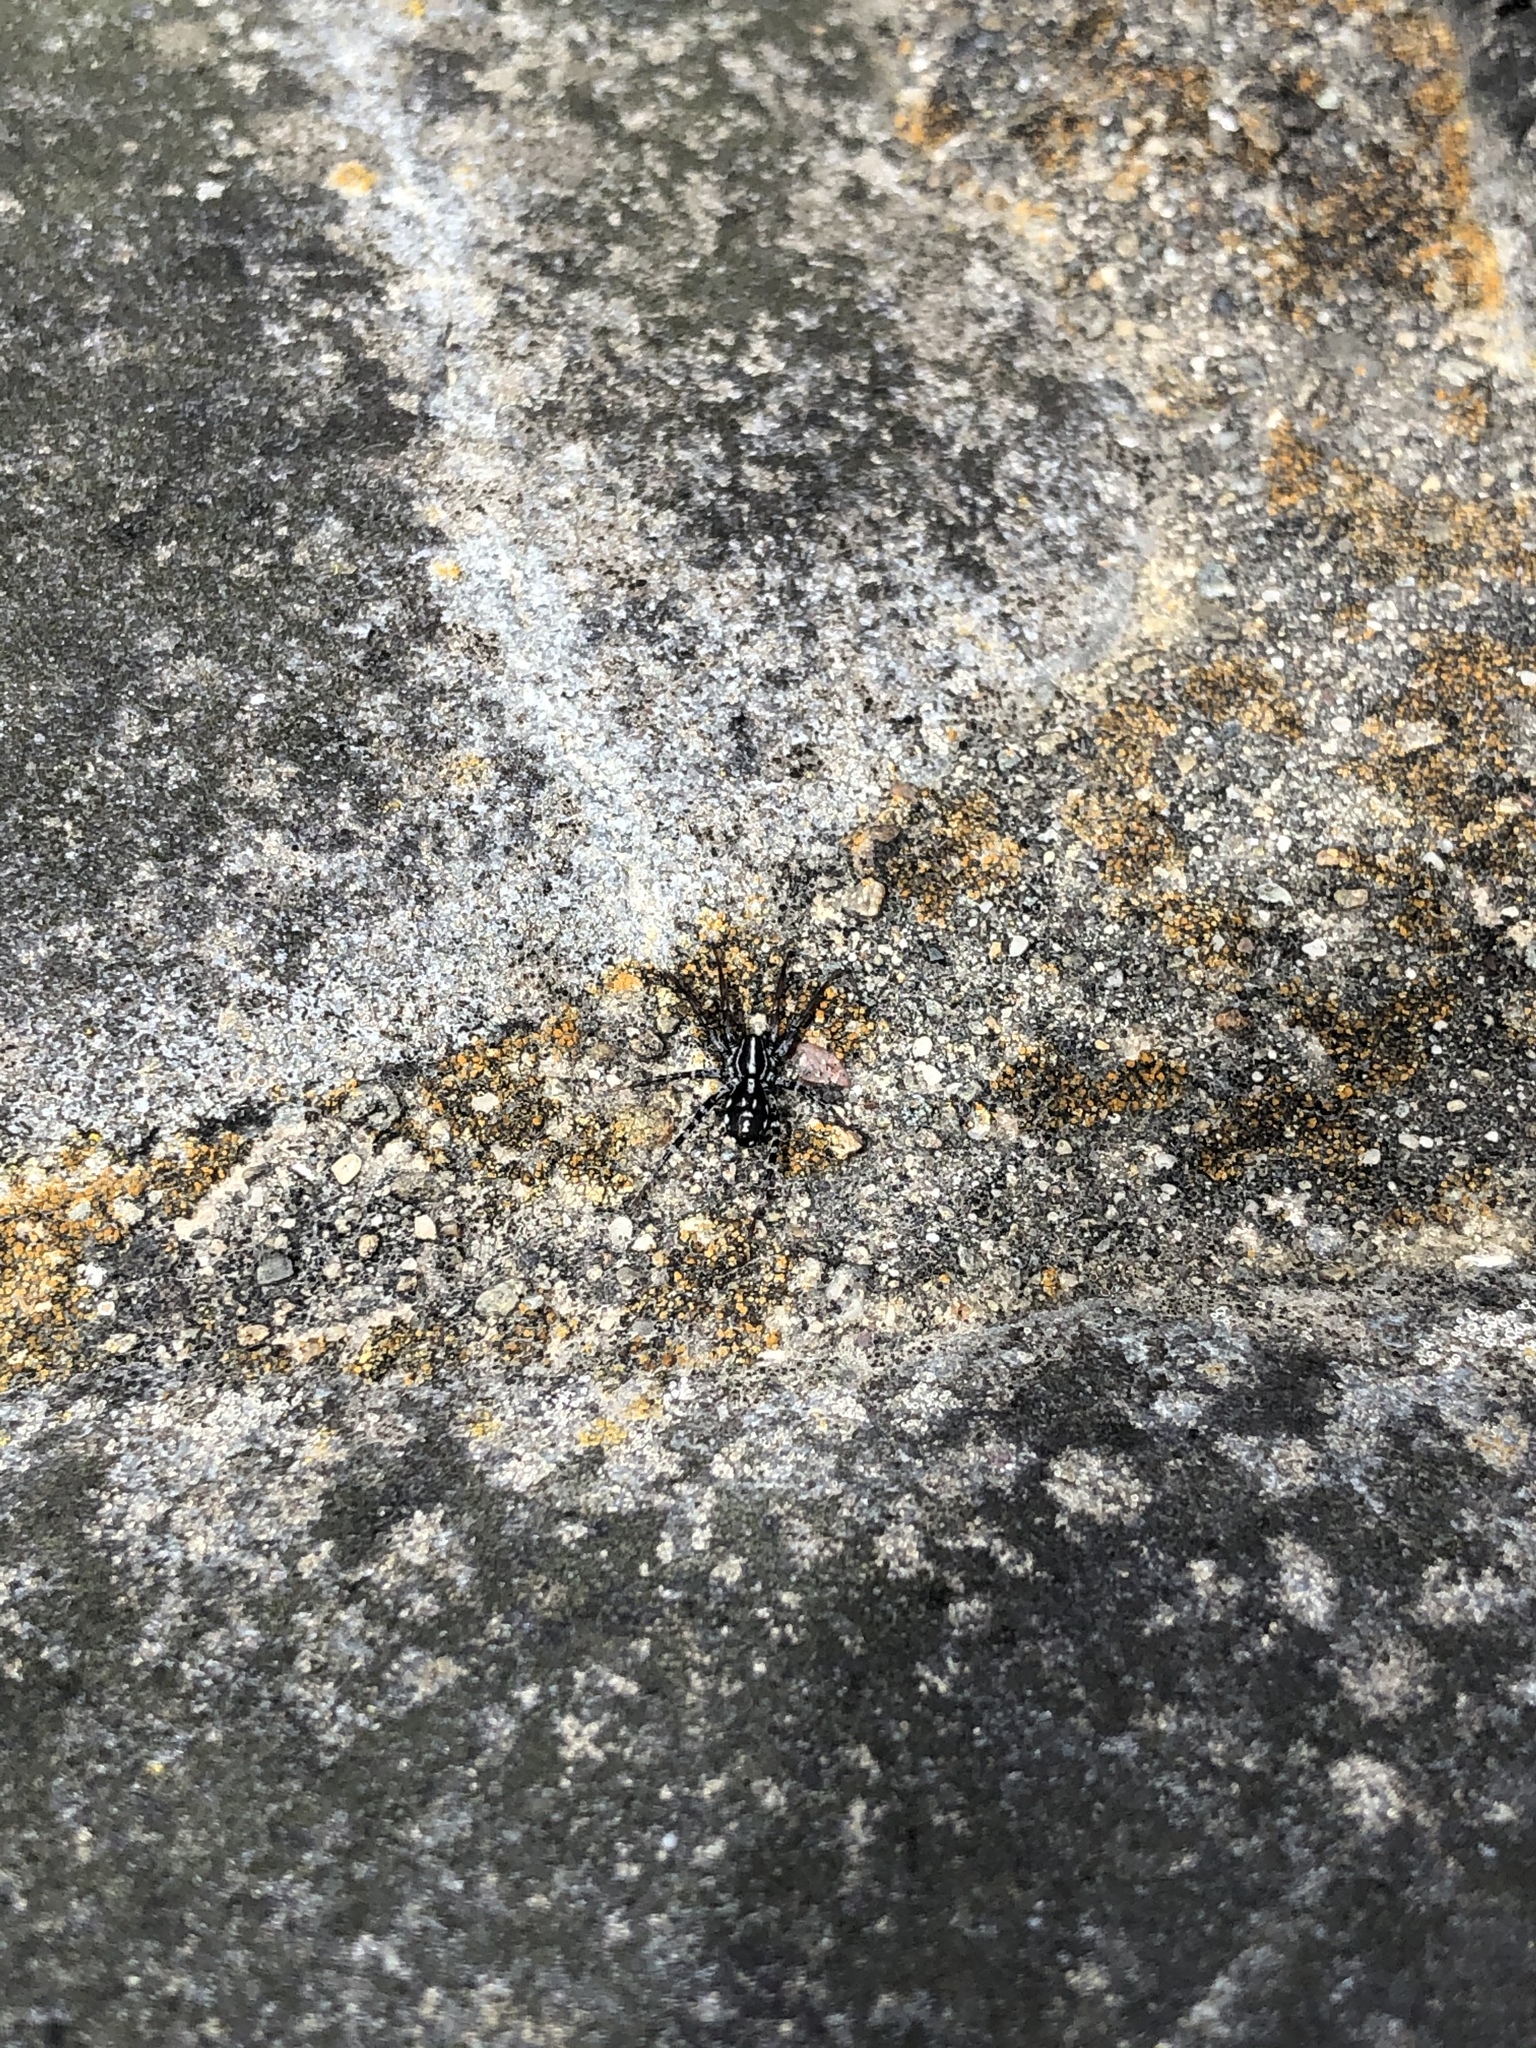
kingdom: Animalia
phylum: Arthropoda
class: Arachnida
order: Araneae
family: Corinnidae
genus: Nyssus
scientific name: Nyssus coloripes
